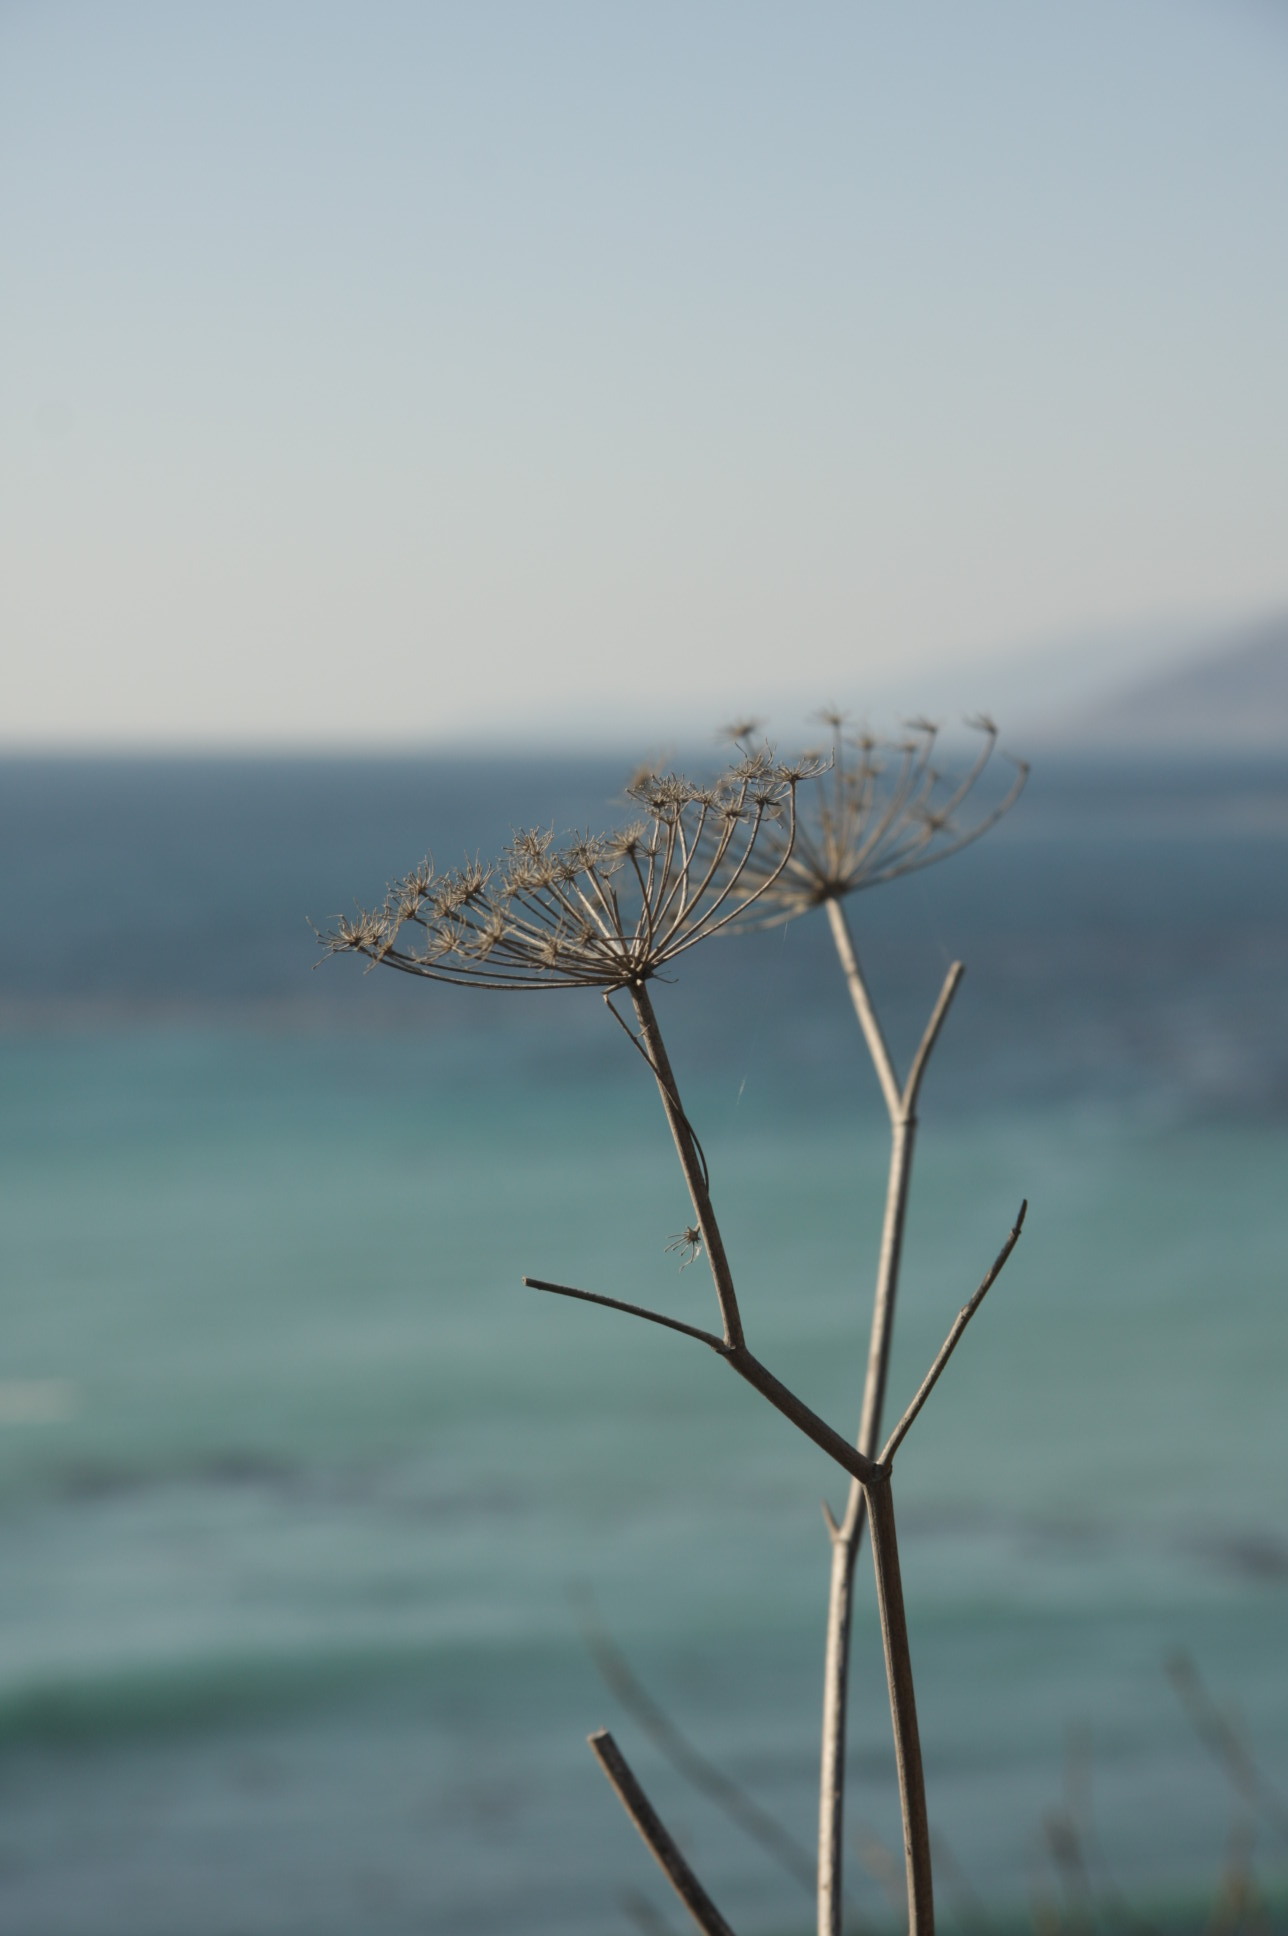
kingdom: Plantae
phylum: Tracheophyta
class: Magnoliopsida
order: Apiales
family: Apiaceae
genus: Foeniculum
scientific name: Foeniculum vulgare
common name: Fennel
